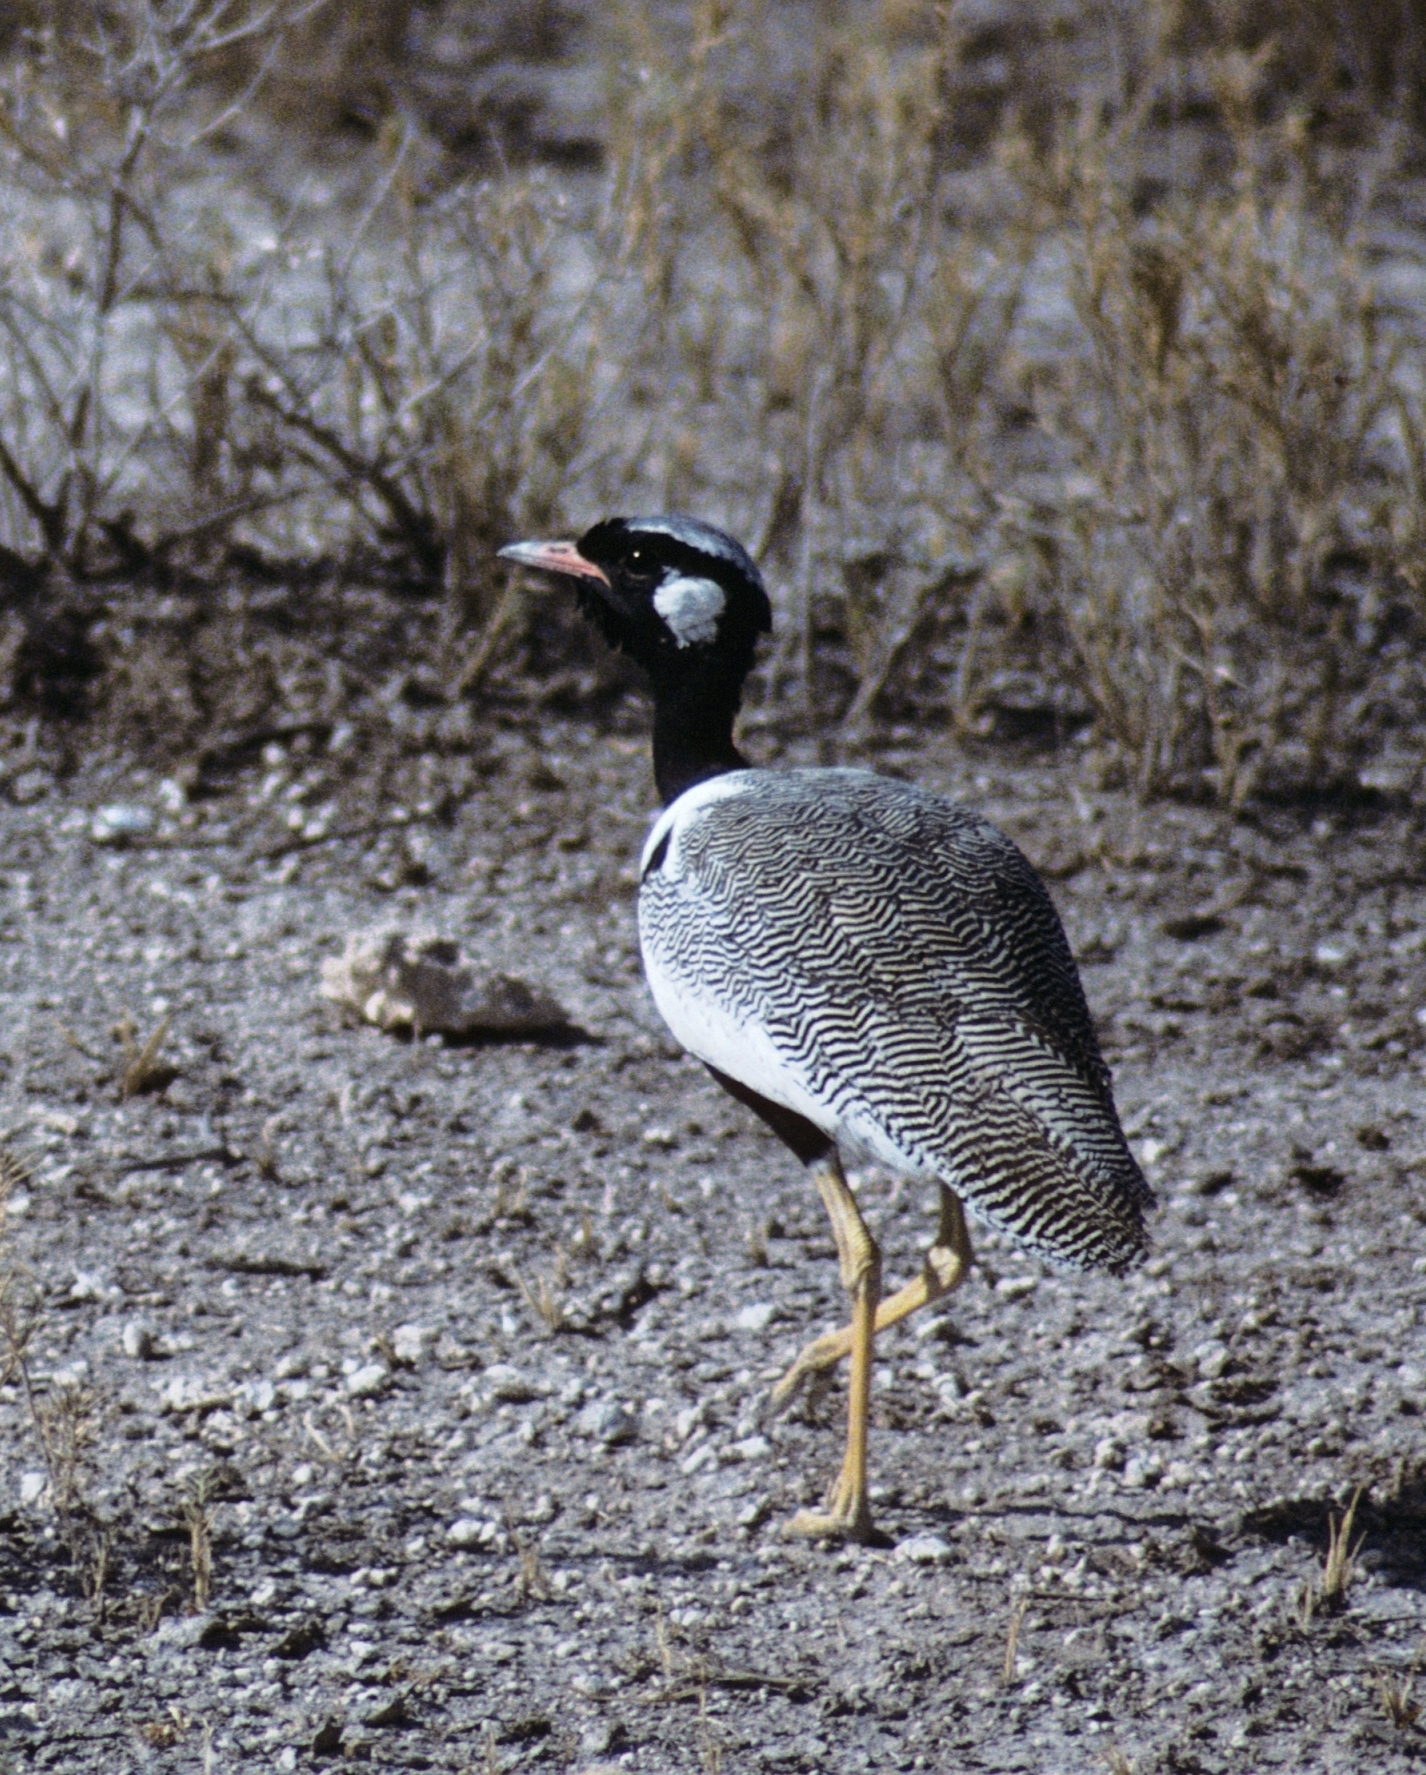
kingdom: Animalia
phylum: Chordata
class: Aves
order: Otidiformes
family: Otididae
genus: Afrotis
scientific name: Afrotis afraoides
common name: Northern black korhaan
